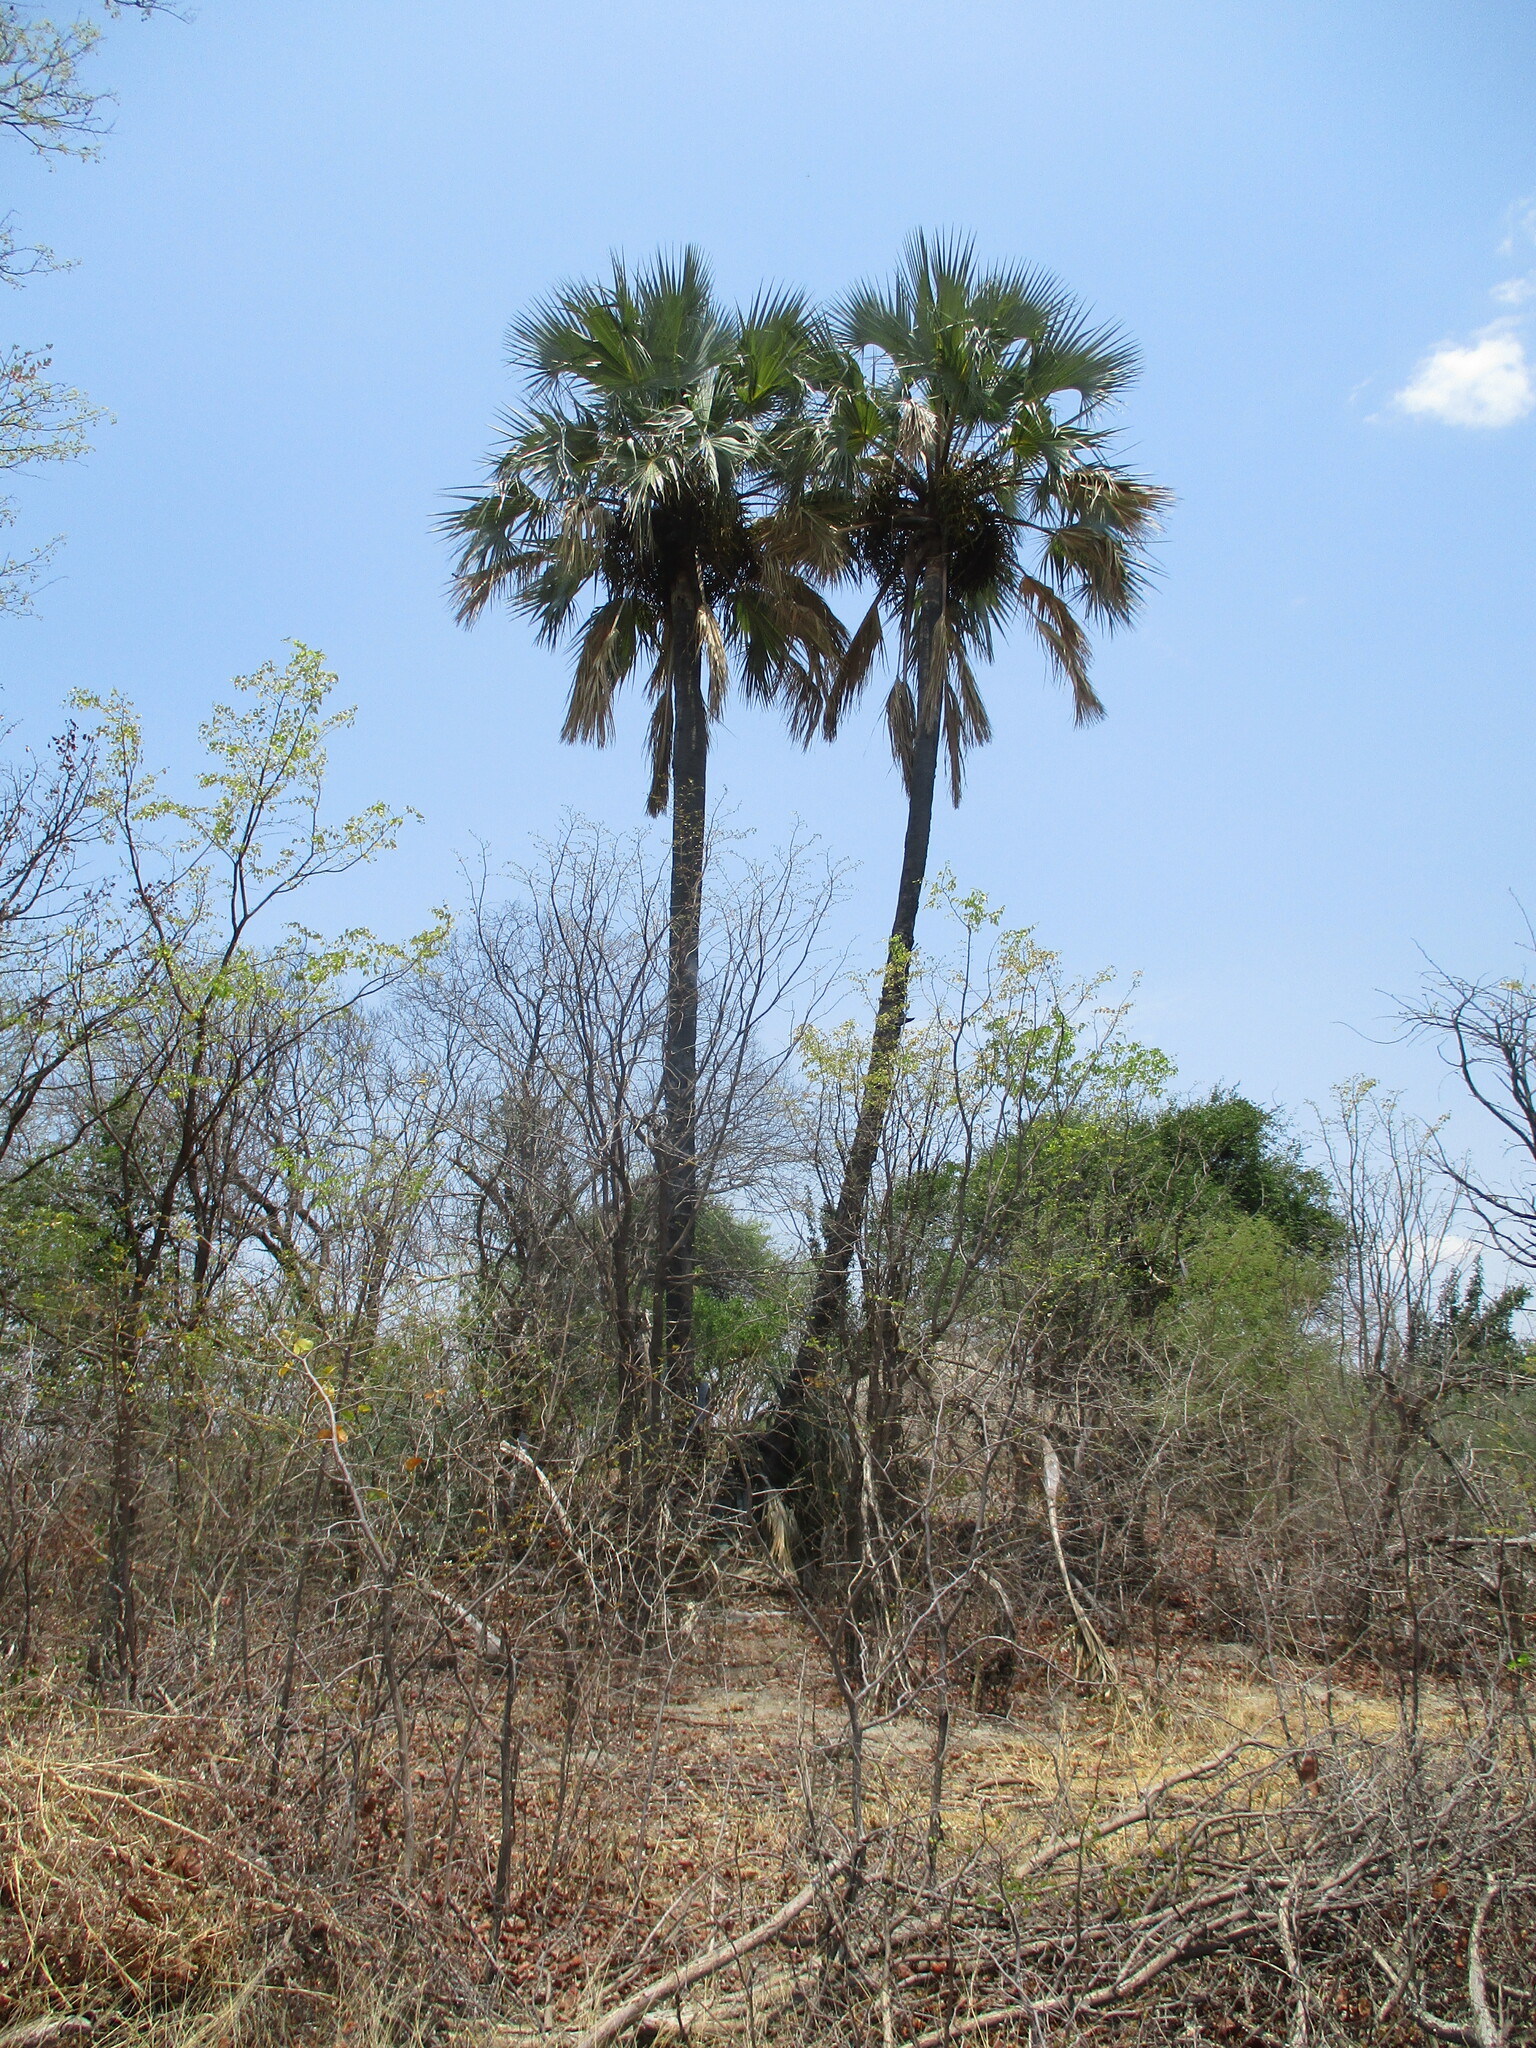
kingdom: Plantae
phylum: Tracheophyta
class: Liliopsida
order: Arecales
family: Arecaceae
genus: Hyphaene
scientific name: Hyphaene petersiana
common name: African ivory nut palm
